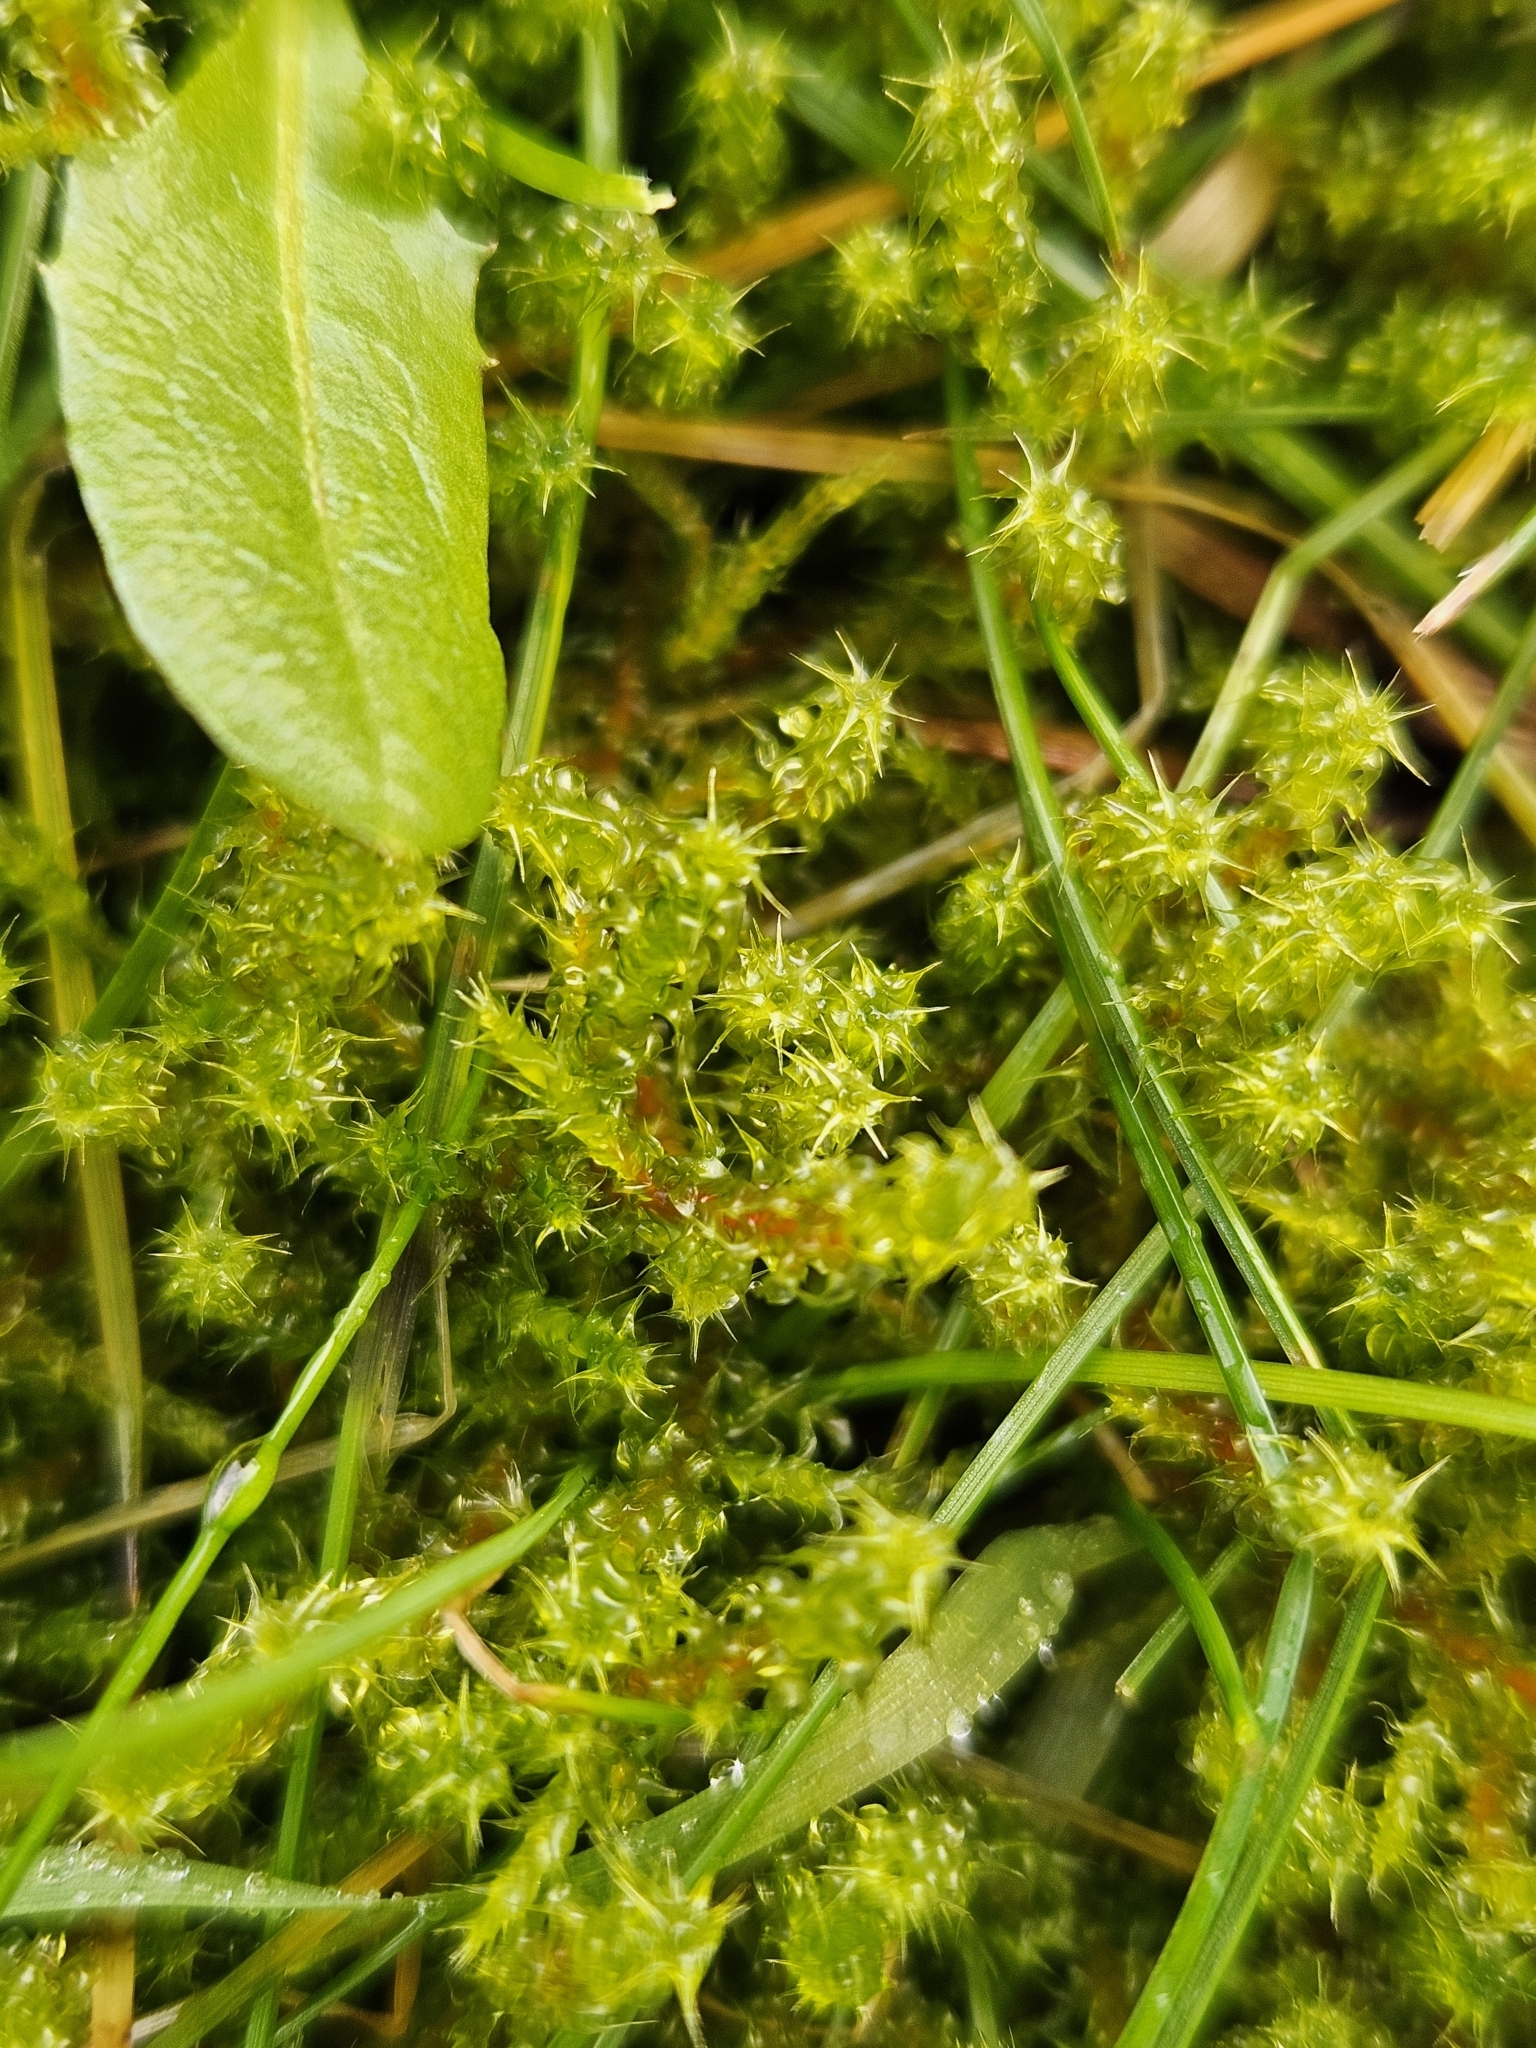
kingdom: Plantae
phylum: Bryophyta
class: Bryopsida
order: Hypnales
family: Hylocomiaceae
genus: Rhytidiadelphus
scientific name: Rhytidiadelphus squarrosus
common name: Springy turf-moss
